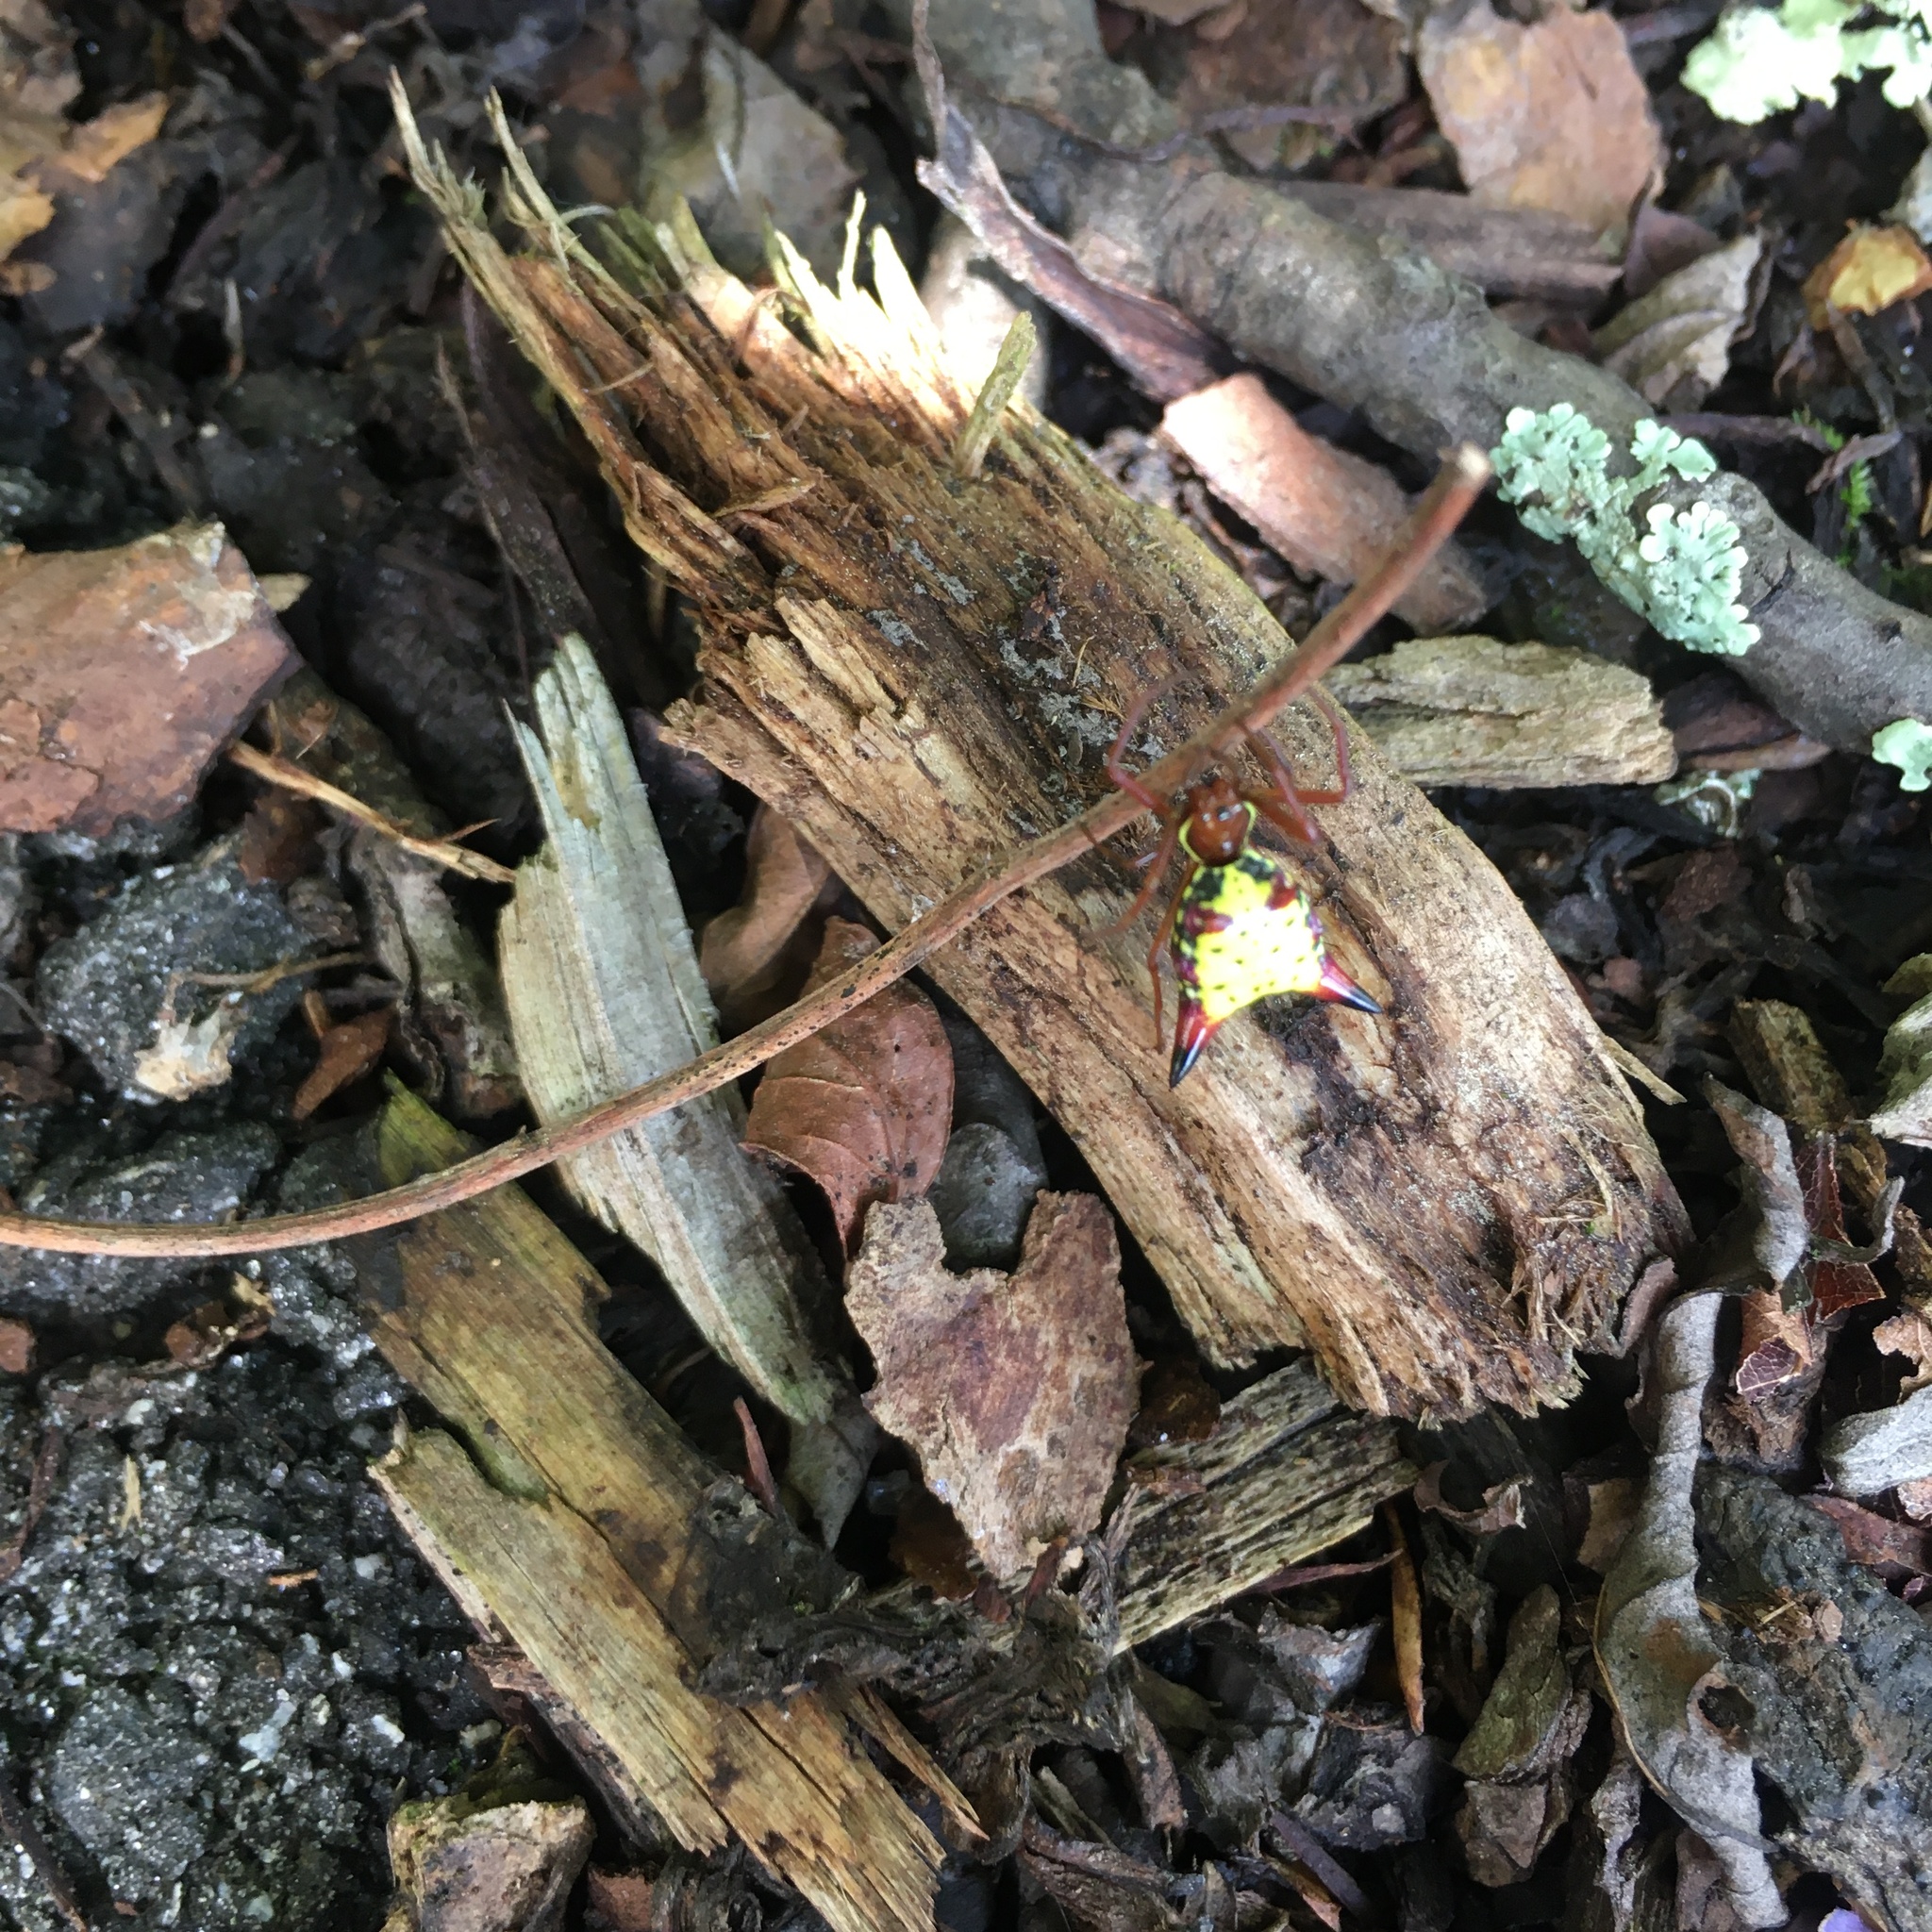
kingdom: Animalia
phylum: Arthropoda
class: Arachnida
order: Araneae
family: Araneidae
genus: Micrathena
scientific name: Micrathena sagittata
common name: Orb weavers
